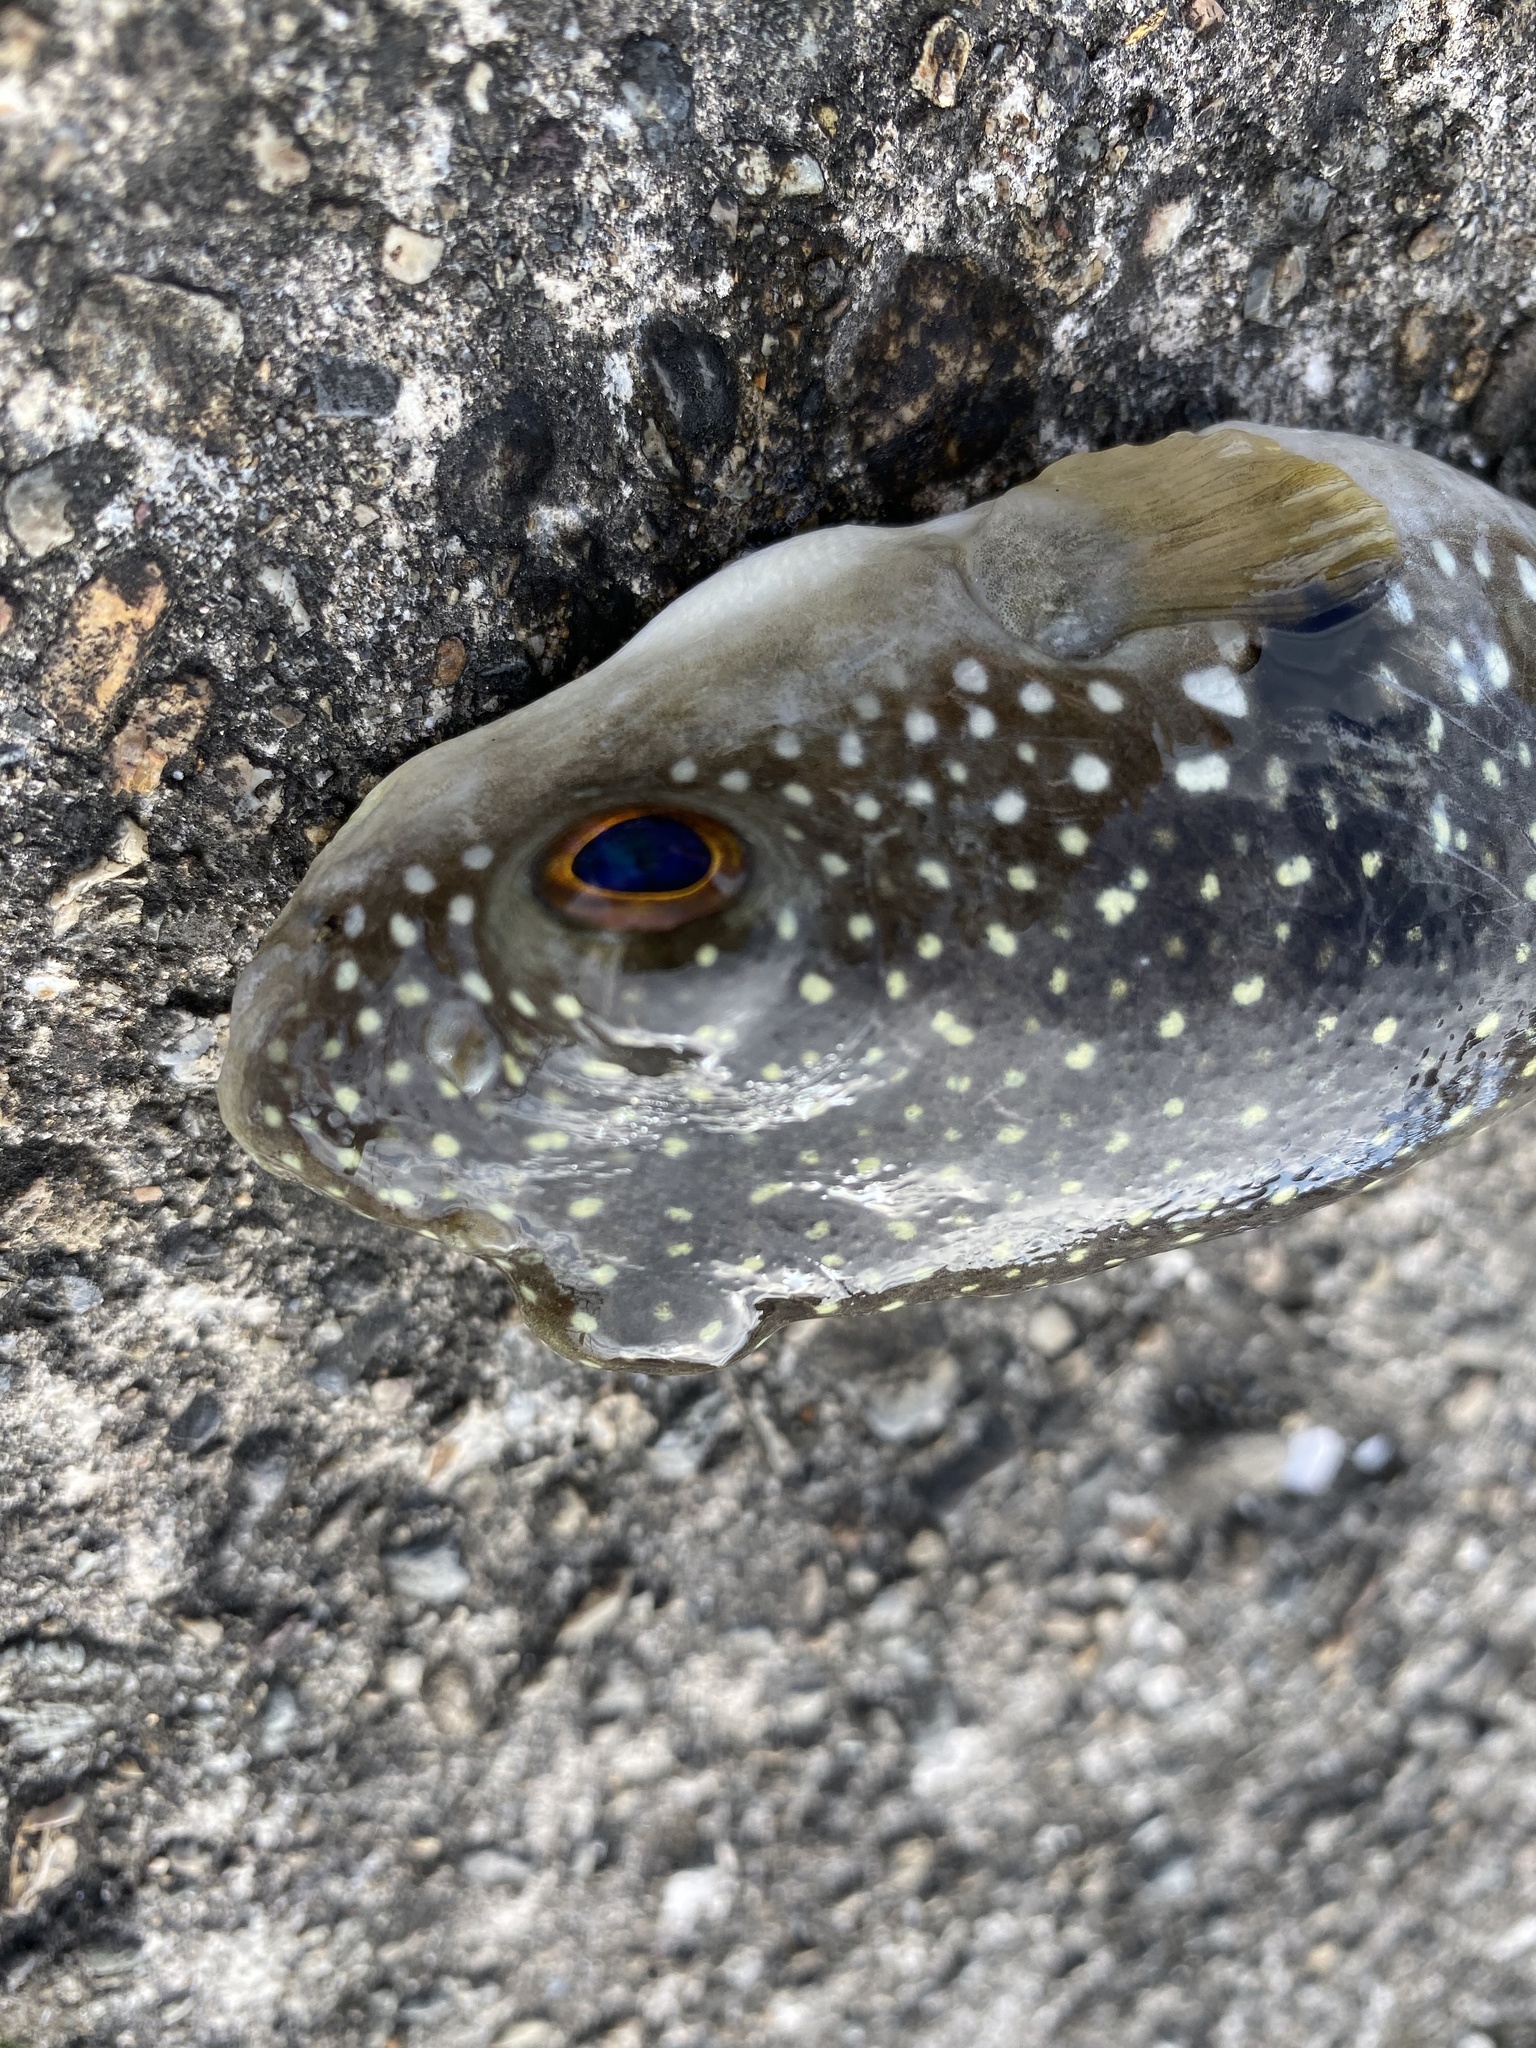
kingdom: Animalia
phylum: Chordata
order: Tetraodontiformes
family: Tetraodontidae
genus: Takifugu
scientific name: Takifugu alboplumbeus
